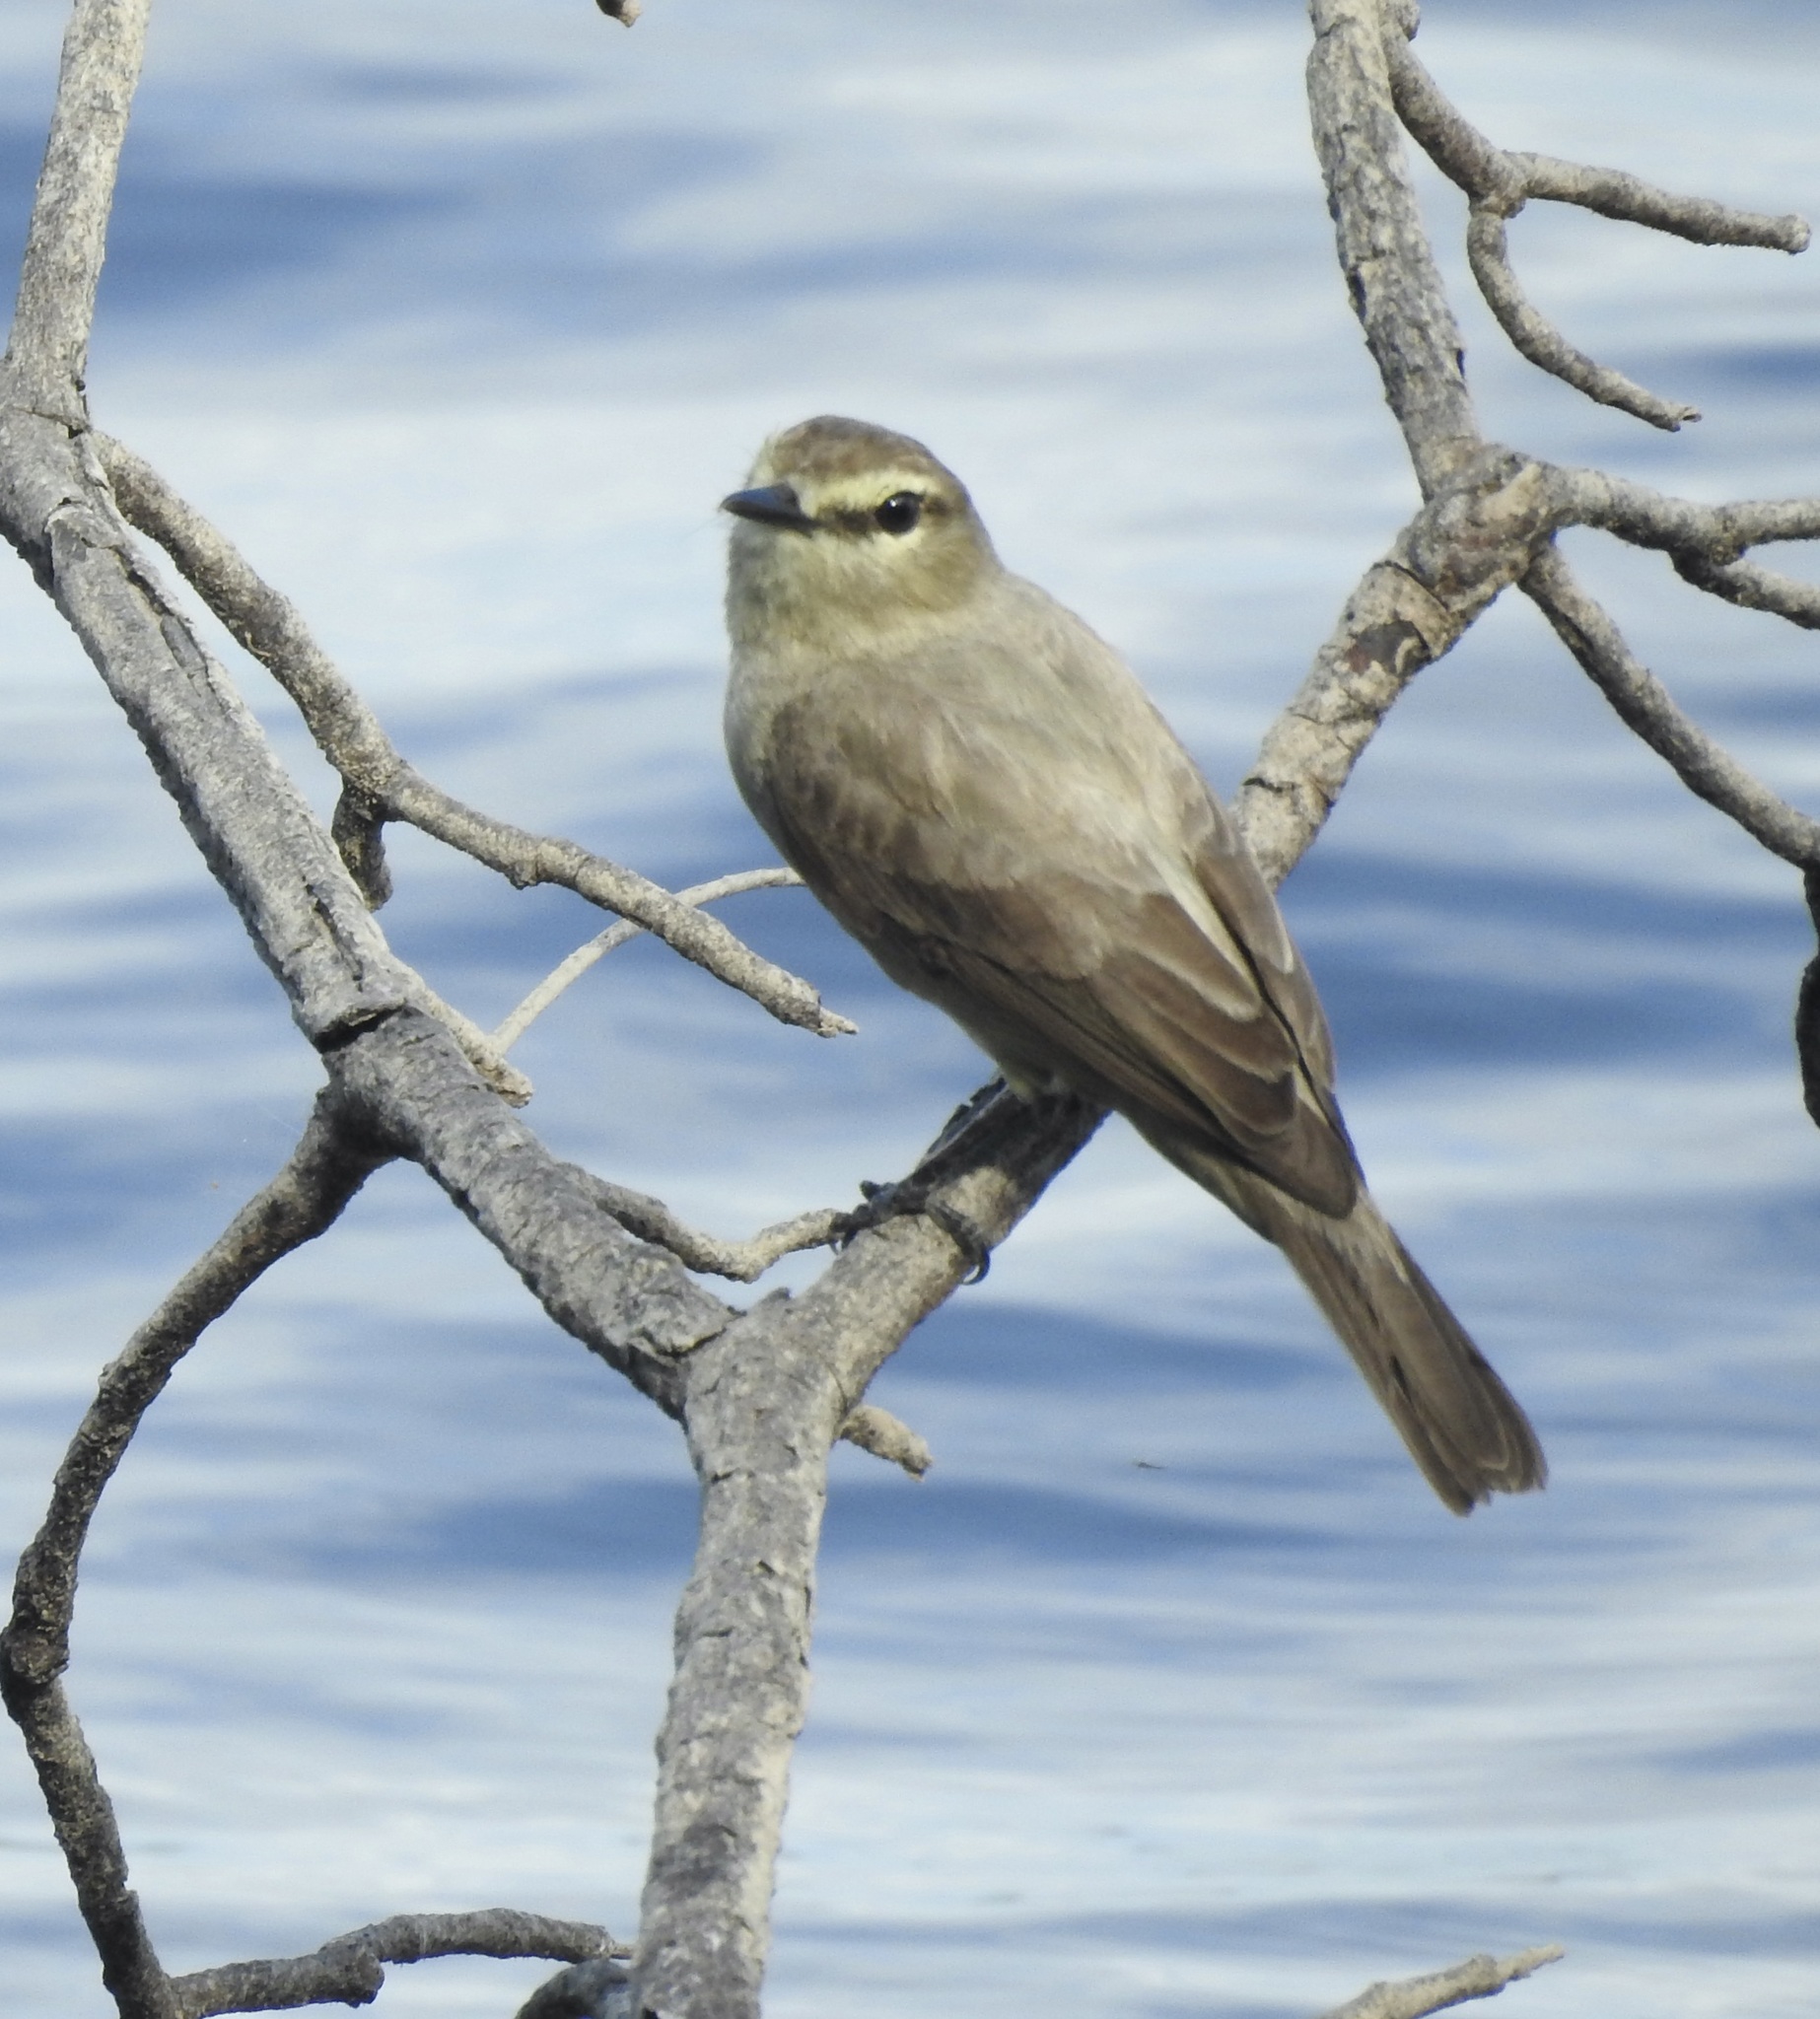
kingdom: Animalia
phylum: Chordata
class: Aves
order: Passeriformes
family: Tyrannidae
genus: Ochthornis
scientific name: Ochthornis littoralis
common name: Drab water tyrant
